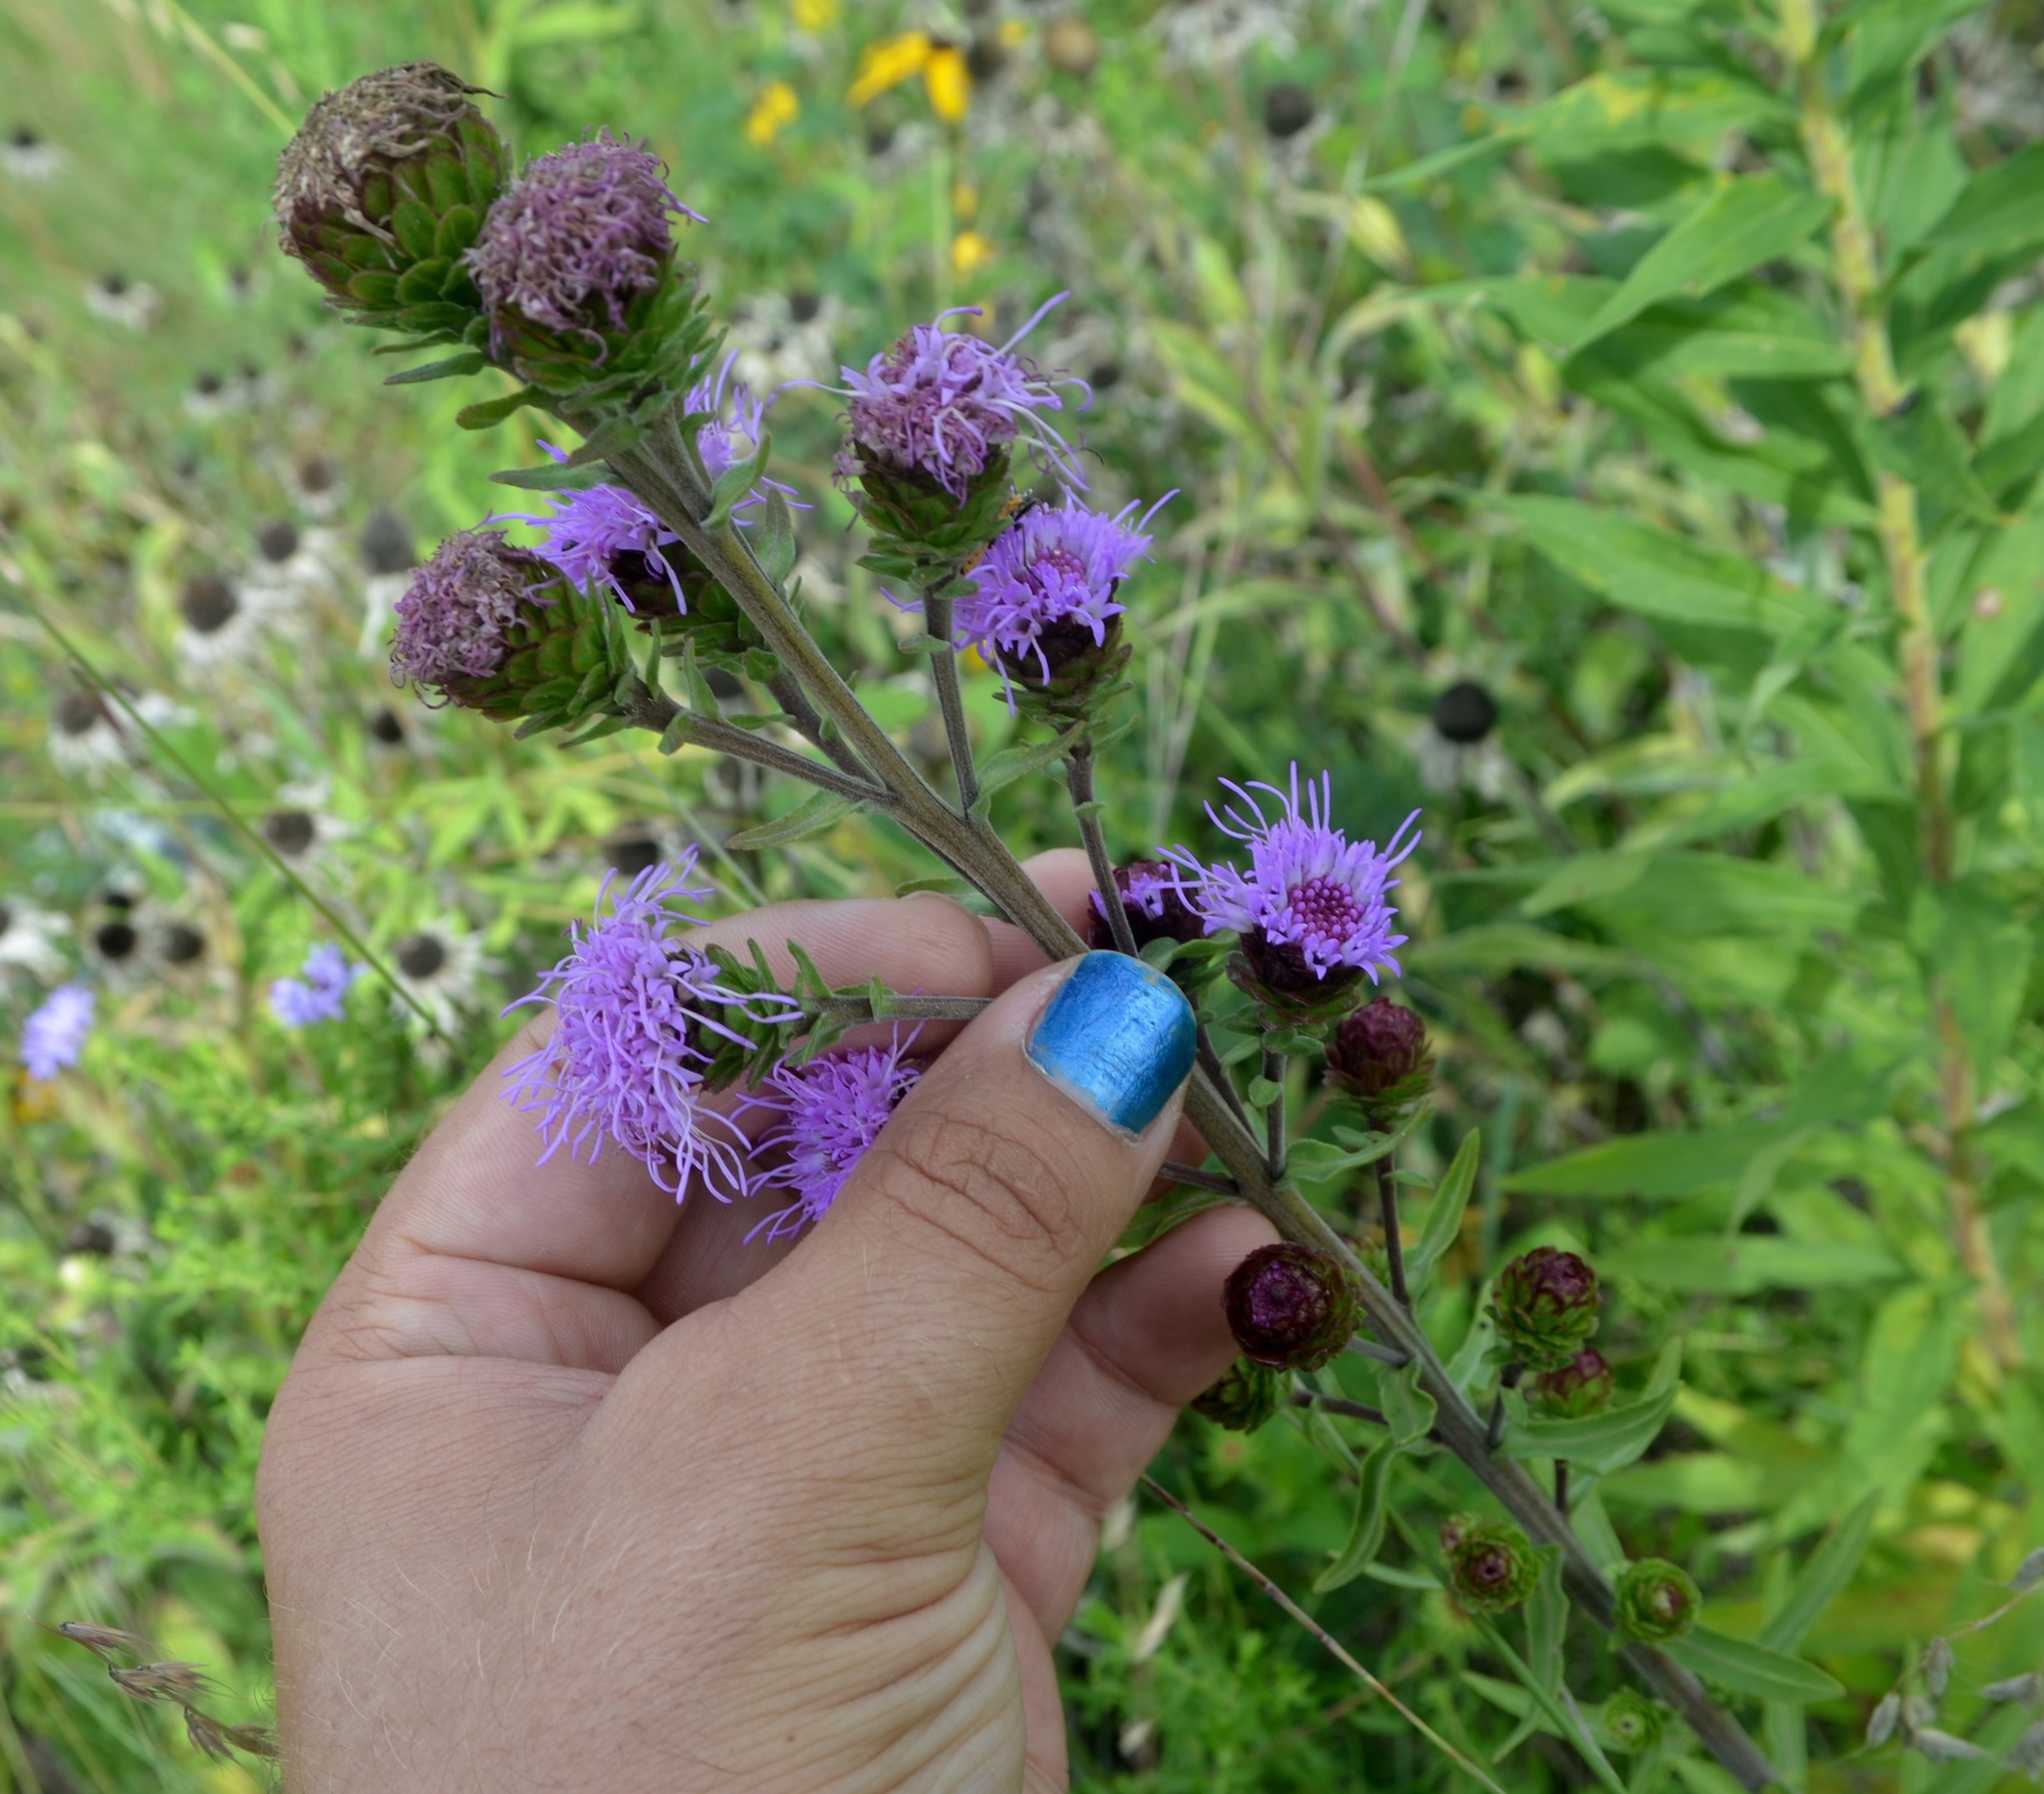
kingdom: Plantae
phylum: Tracheophyta
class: Magnoliopsida
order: Asterales
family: Asteraceae
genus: Liatris
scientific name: Liatris scariosa
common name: Northern gayfeather
